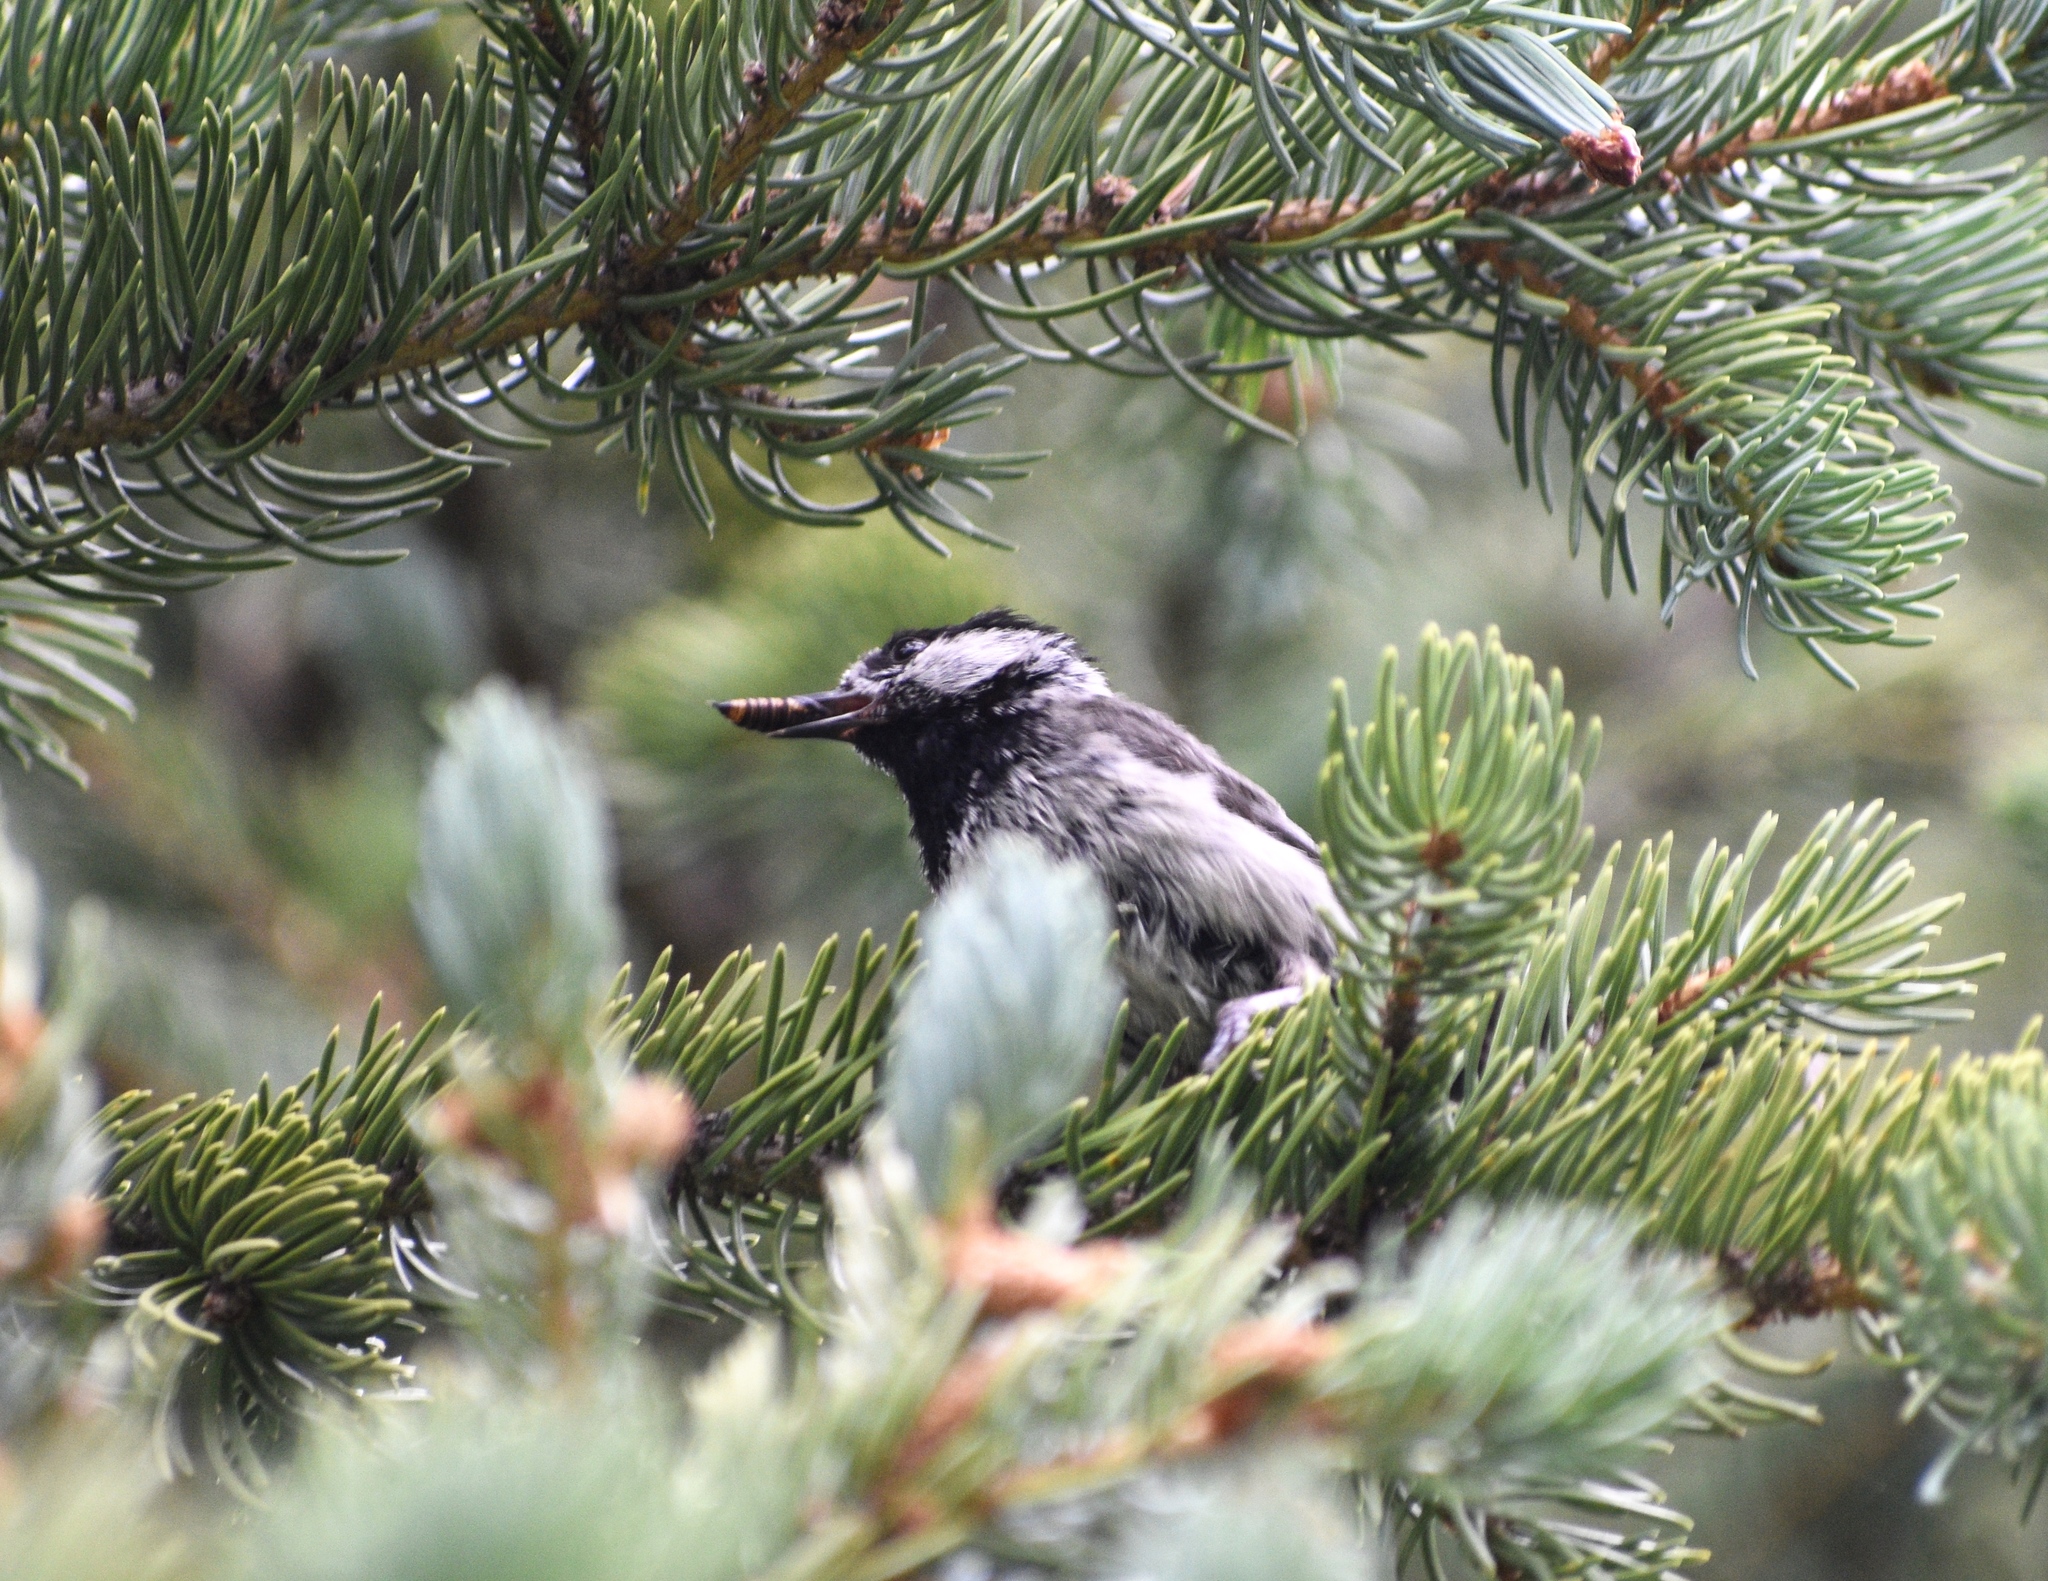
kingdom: Animalia
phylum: Chordata
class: Aves
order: Passeriformes
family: Paridae
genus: Poecile
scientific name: Poecile gambeli
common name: Mountain chickadee
